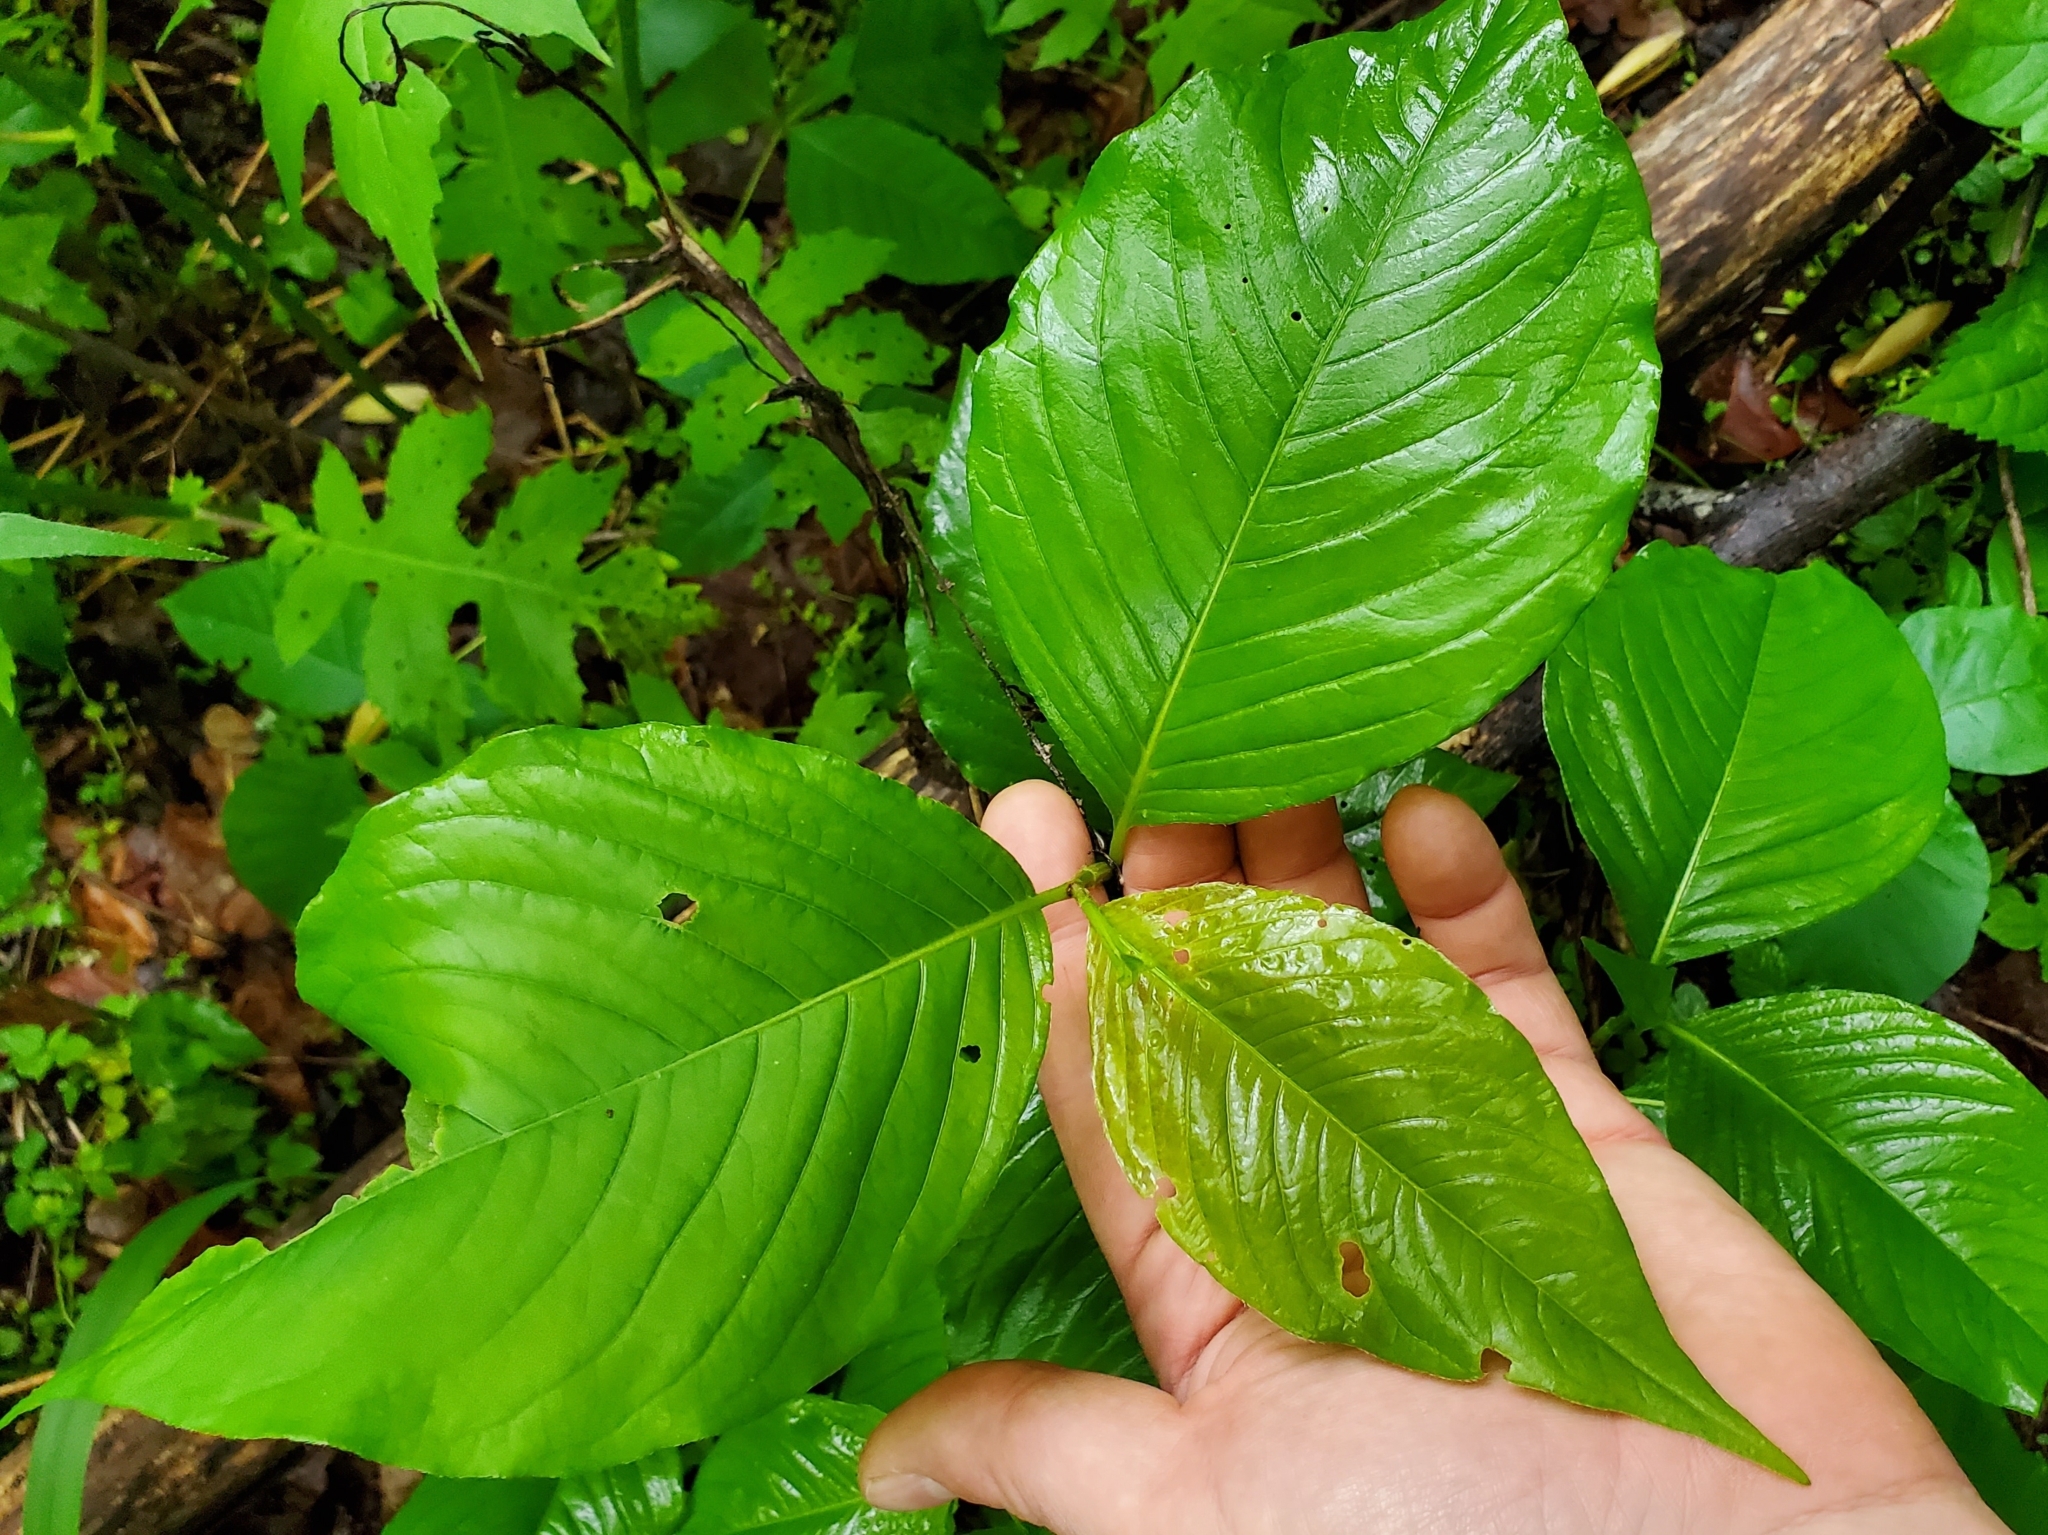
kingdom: Plantae
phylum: Tracheophyta
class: Magnoliopsida
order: Caryophyllales
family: Polygonaceae
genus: Persicaria
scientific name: Persicaria virginiana
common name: Jumpseed
